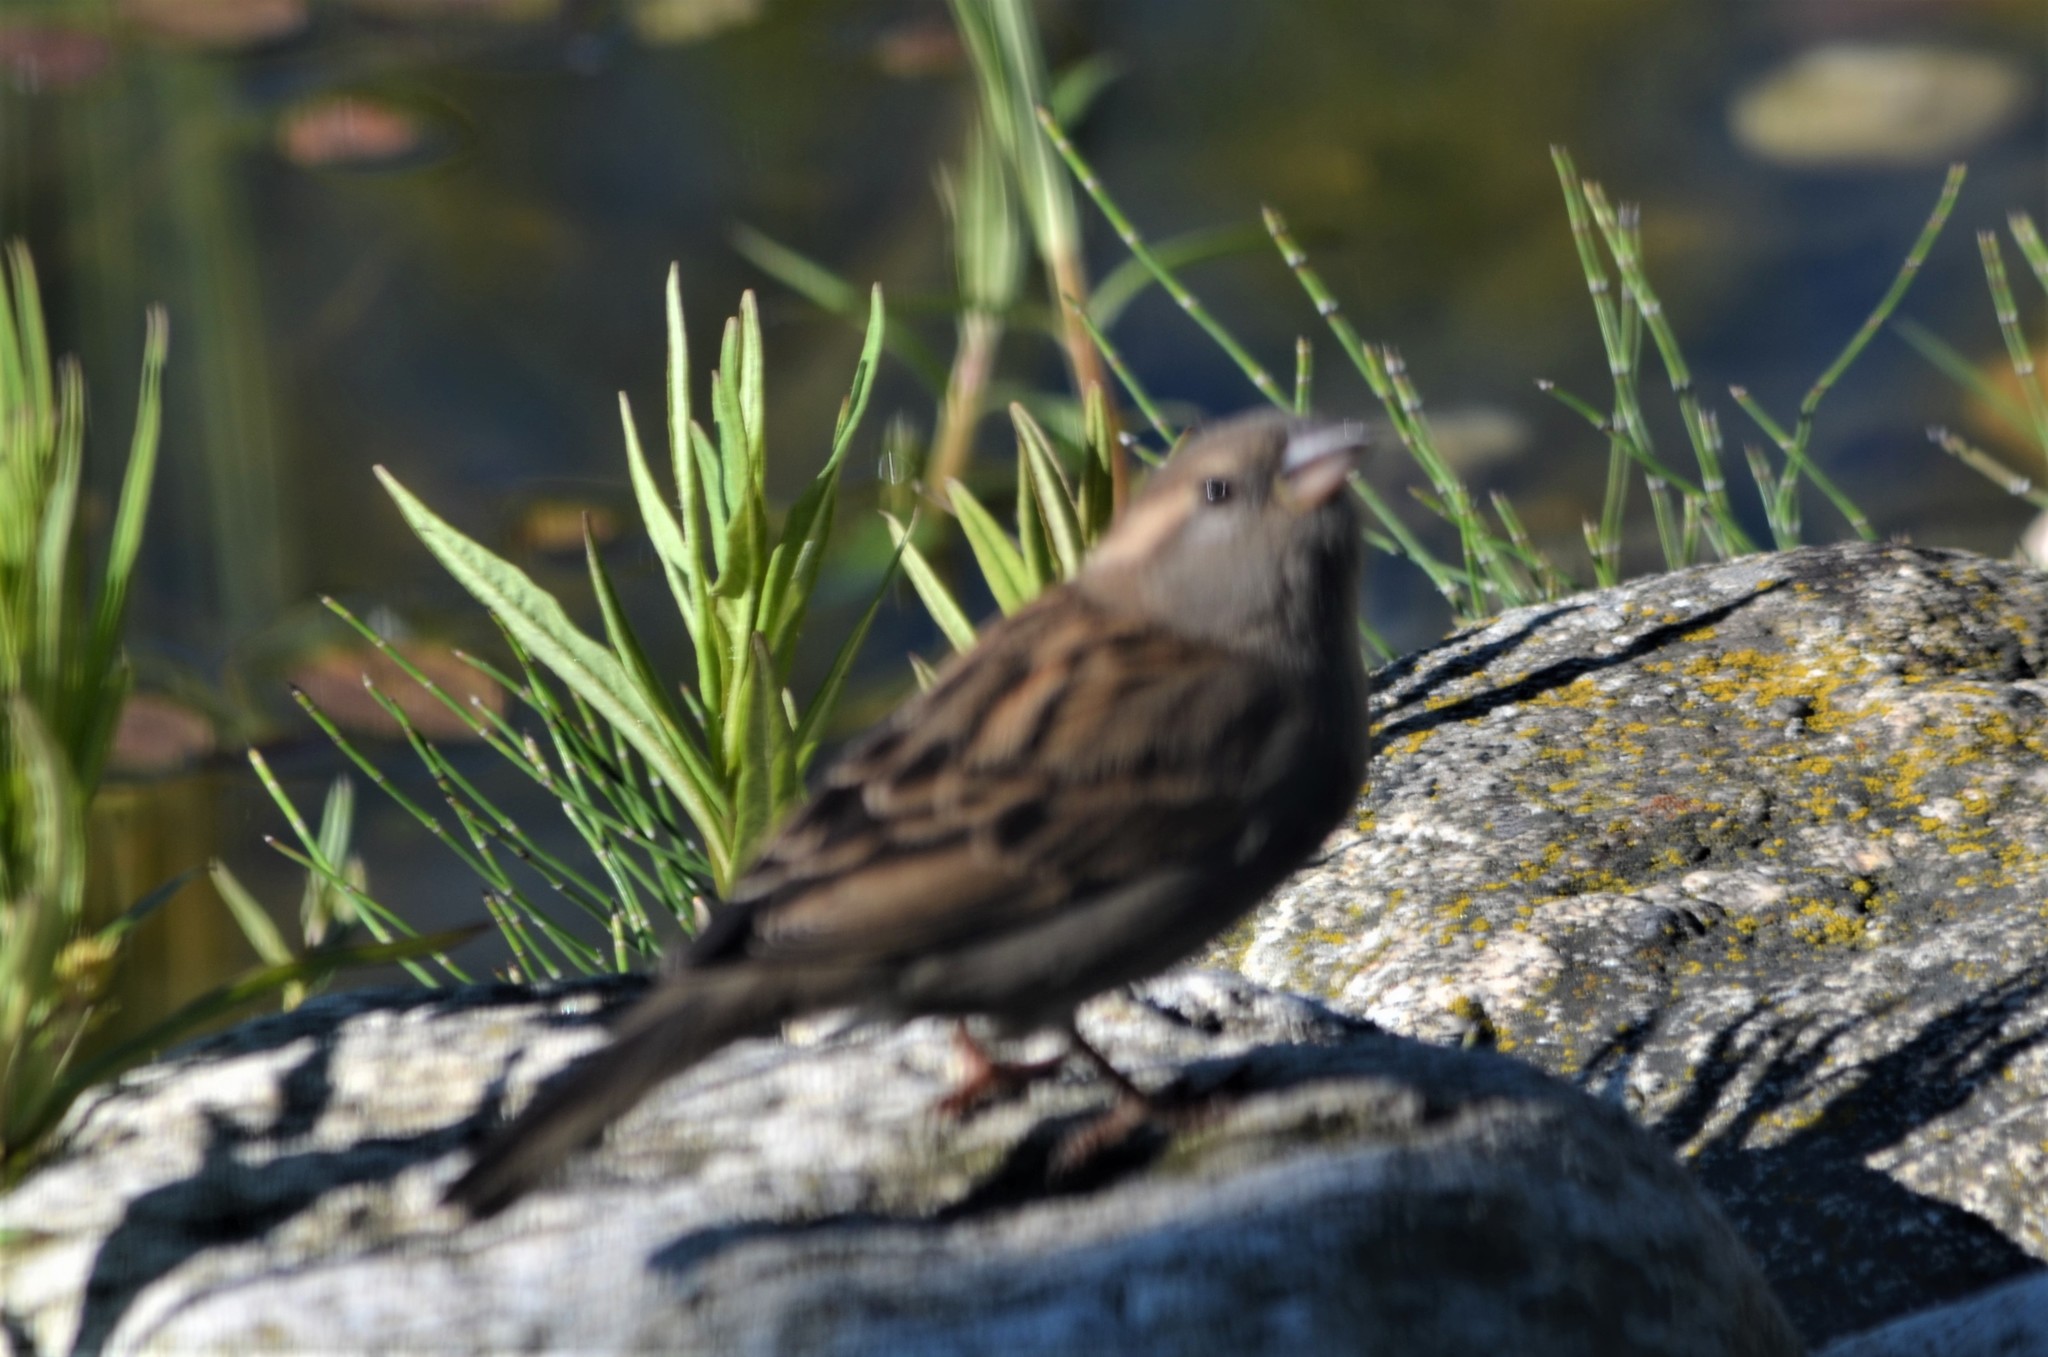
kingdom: Animalia
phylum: Chordata
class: Aves
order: Passeriformes
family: Passeridae
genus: Passer
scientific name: Passer domesticus
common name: House sparrow
